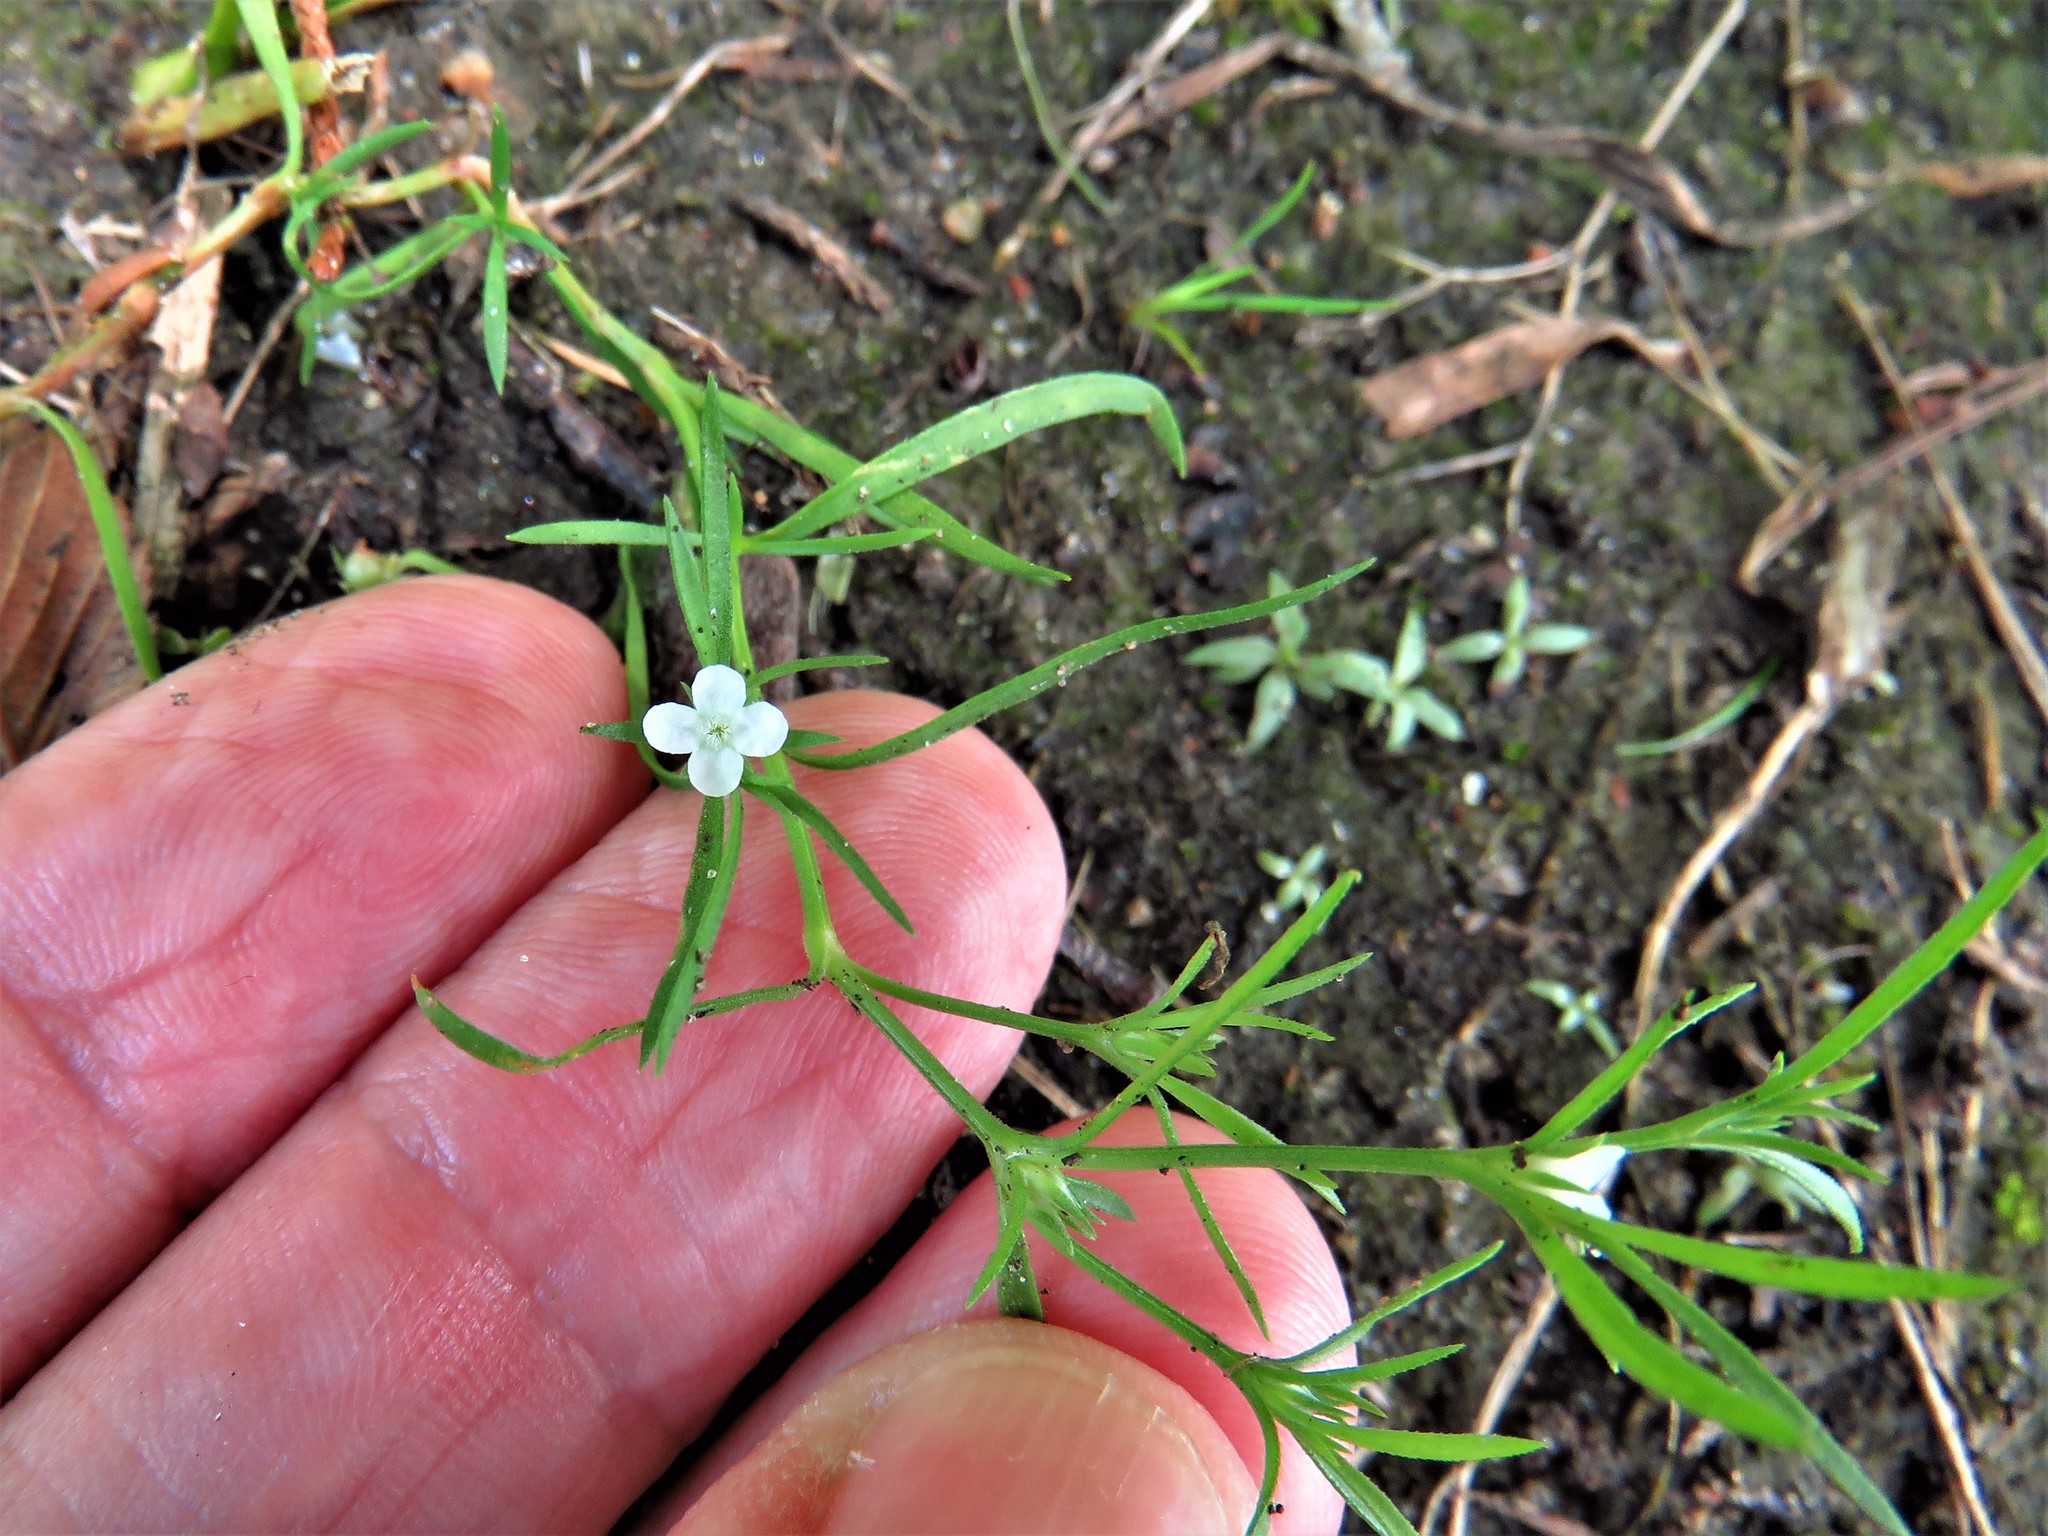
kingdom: Plantae
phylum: Tracheophyta
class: Magnoliopsida
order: Lamiales
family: Tetrachondraceae
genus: Polypremum
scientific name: Polypremum procumbens
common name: Juniper-leaf
